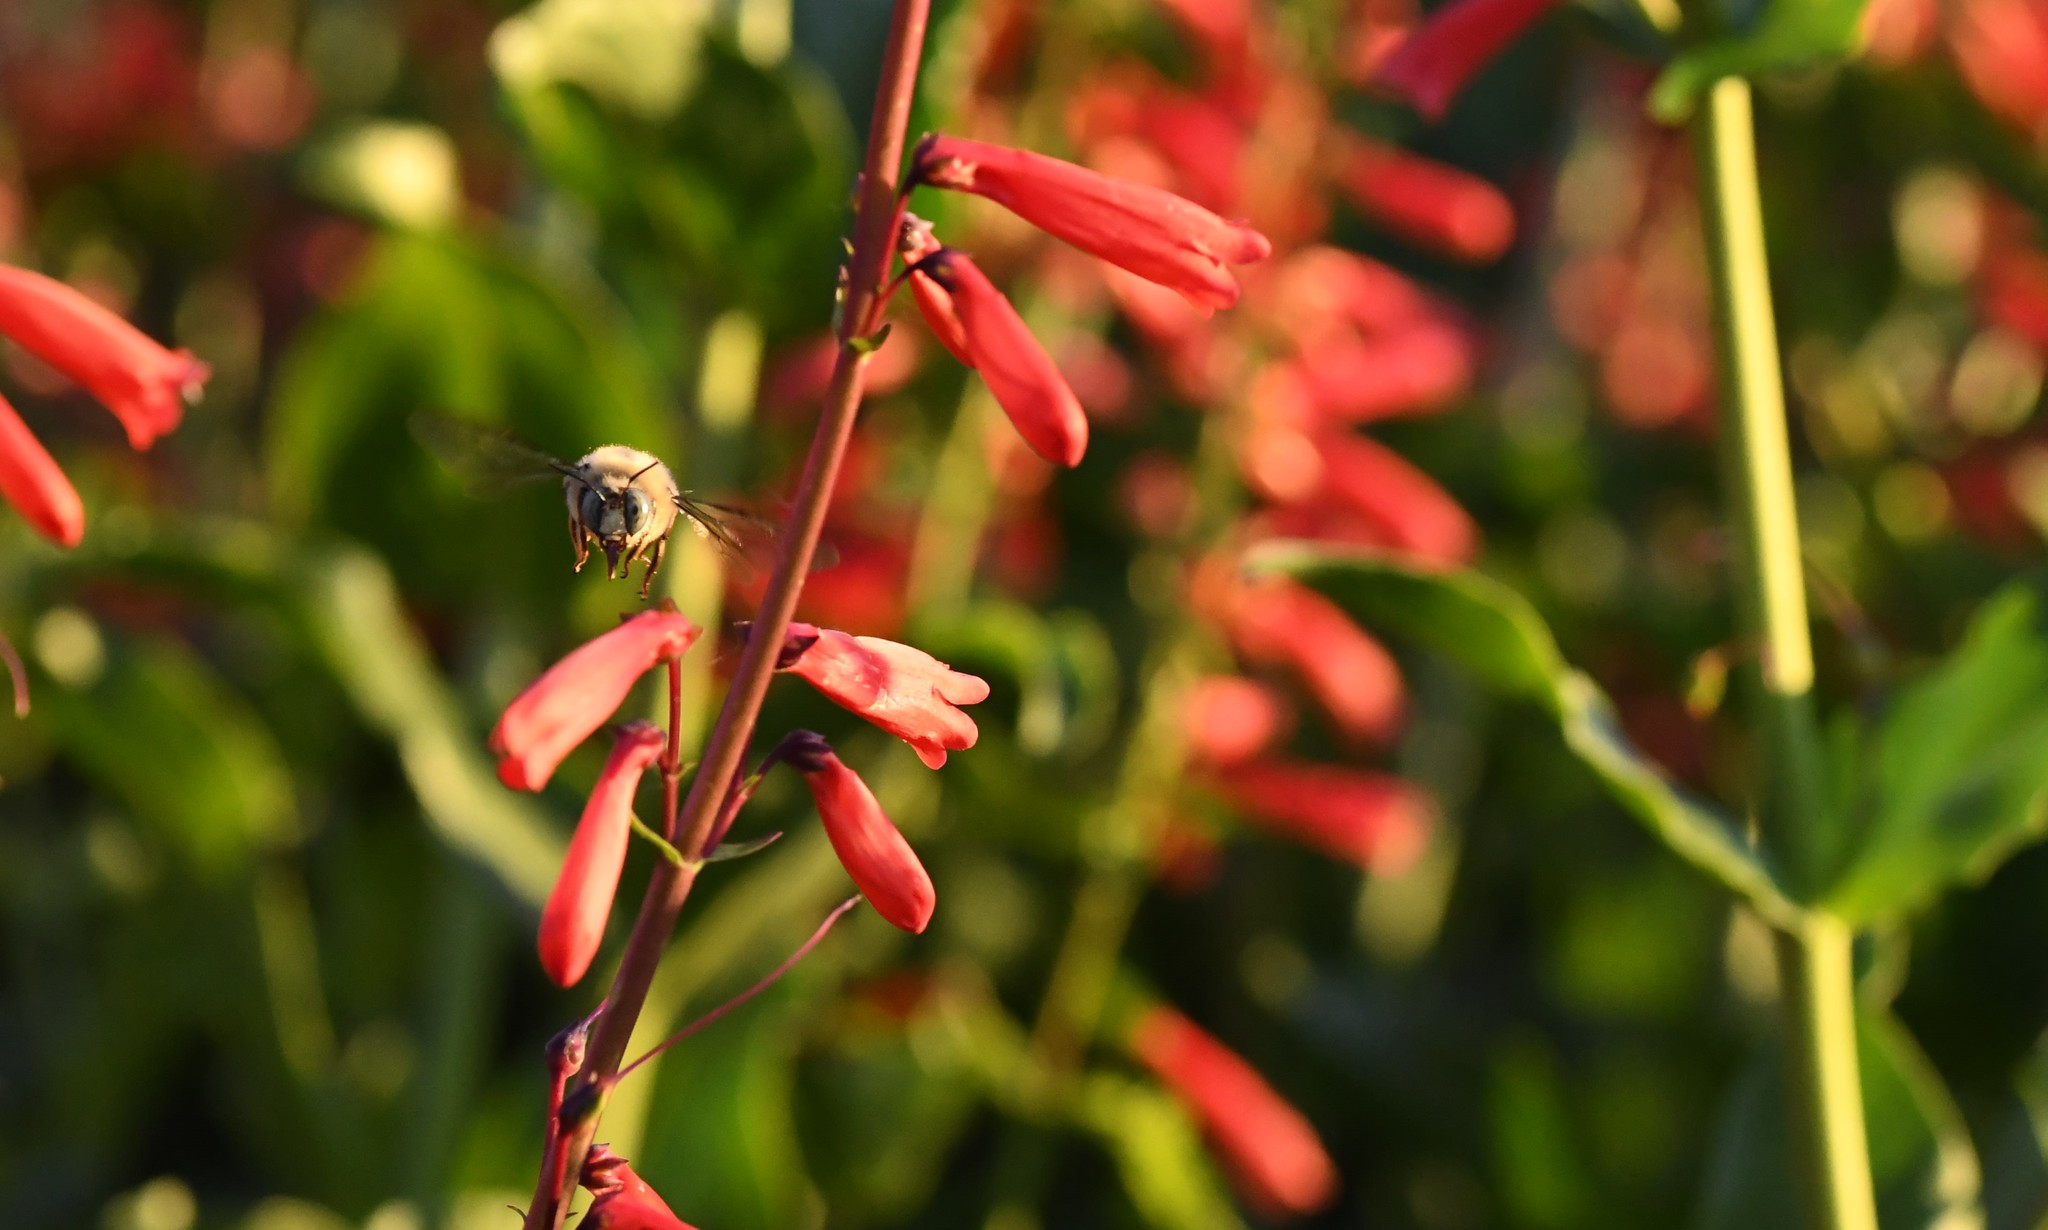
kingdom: Animalia
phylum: Arthropoda
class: Insecta
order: Hymenoptera
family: Apidae
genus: Xylocopa
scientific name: Xylocopa tabaniformis
